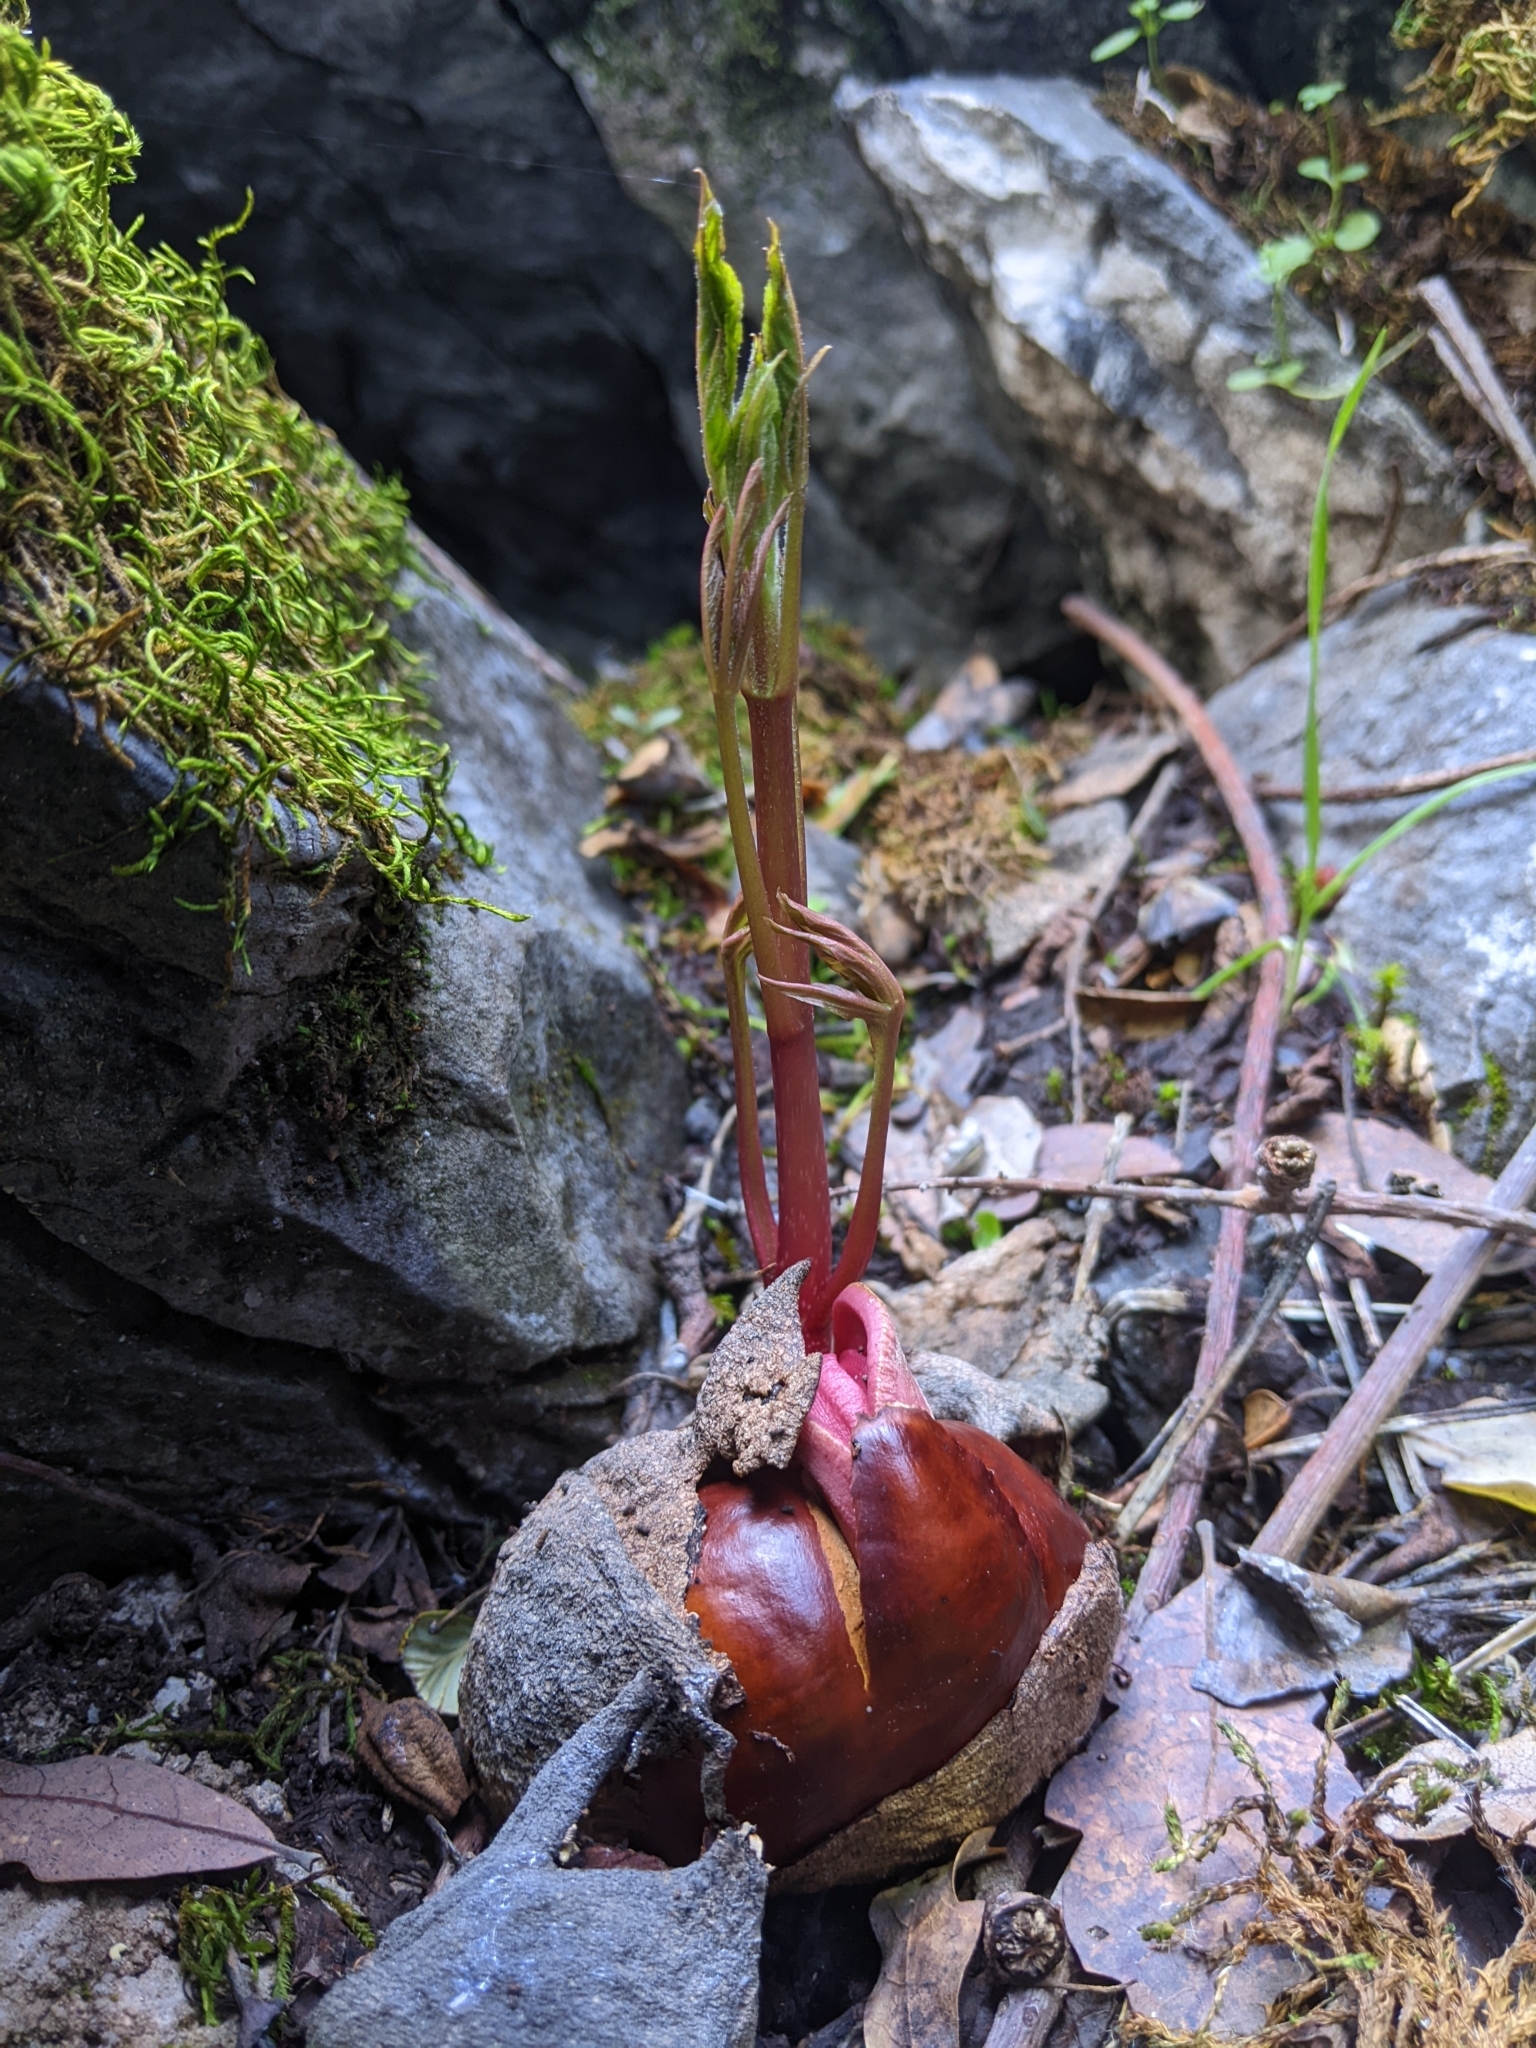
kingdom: Plantae
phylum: Tracheophyta
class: Magnoliopsida
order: Sapindales
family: Sapindaceae
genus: Aesculus
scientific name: Aesculus californica
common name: California buckeye
